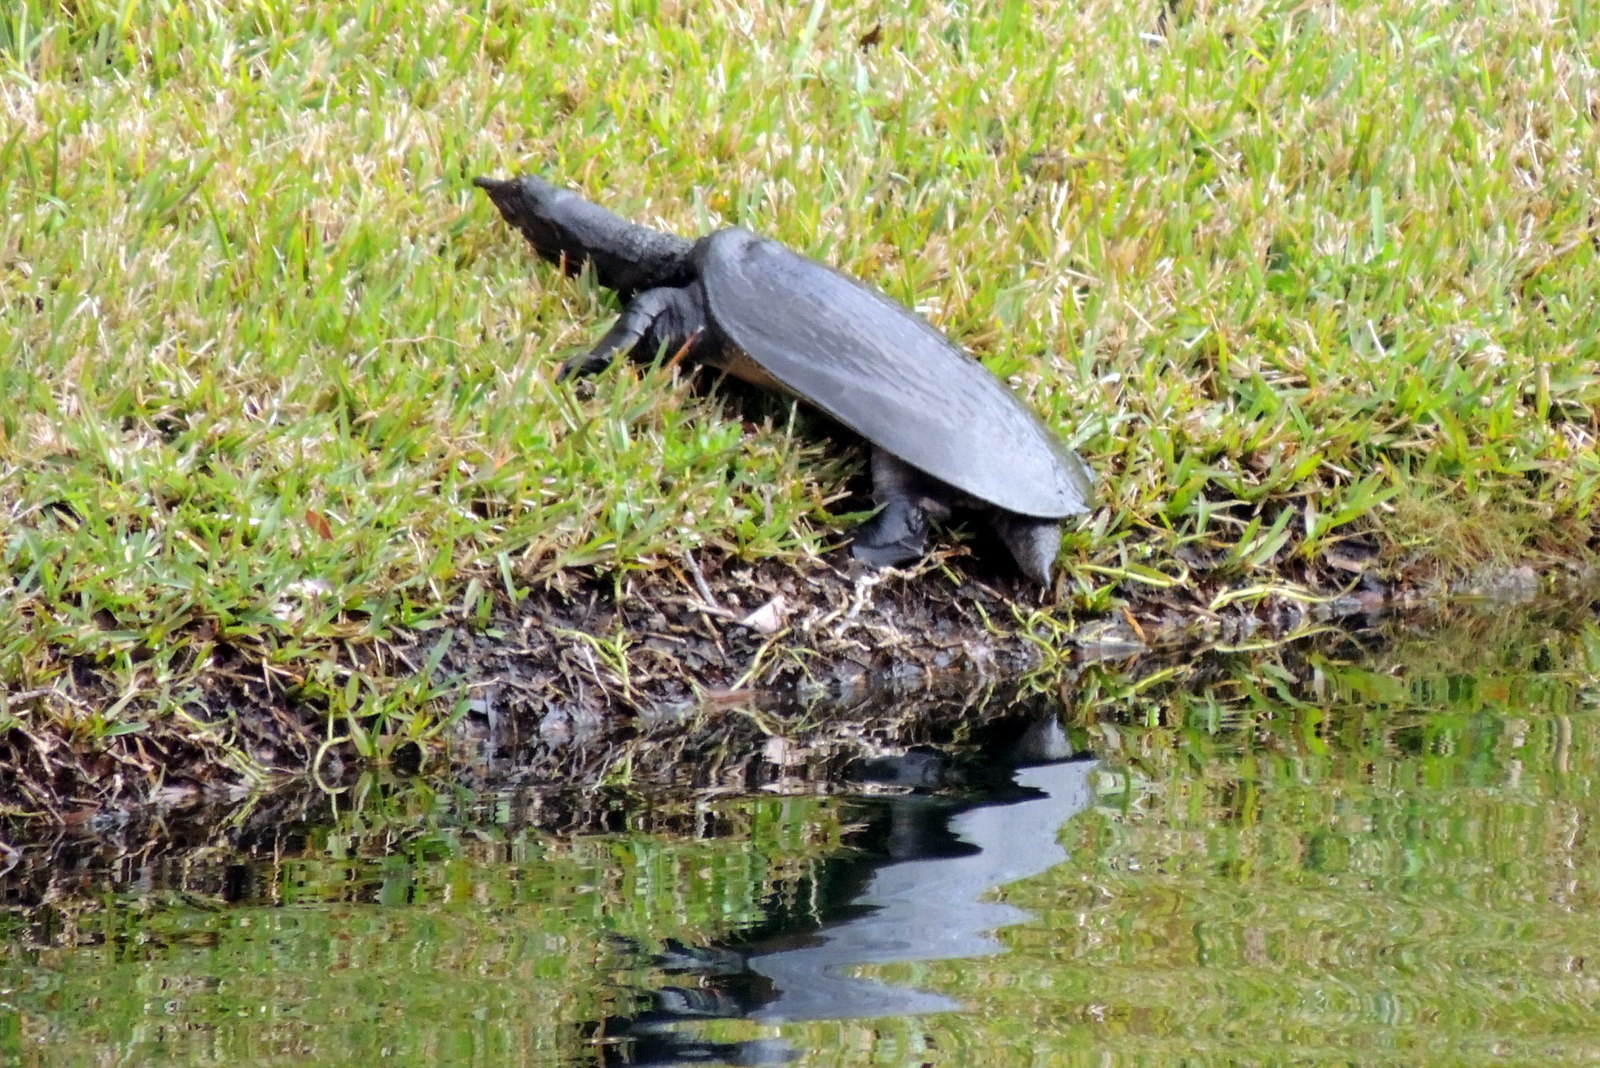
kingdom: Animalia
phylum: Chordata
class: Testudines
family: Trionychidae
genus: Apalone
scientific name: Apalone ferox
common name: Florida softshell turtle
